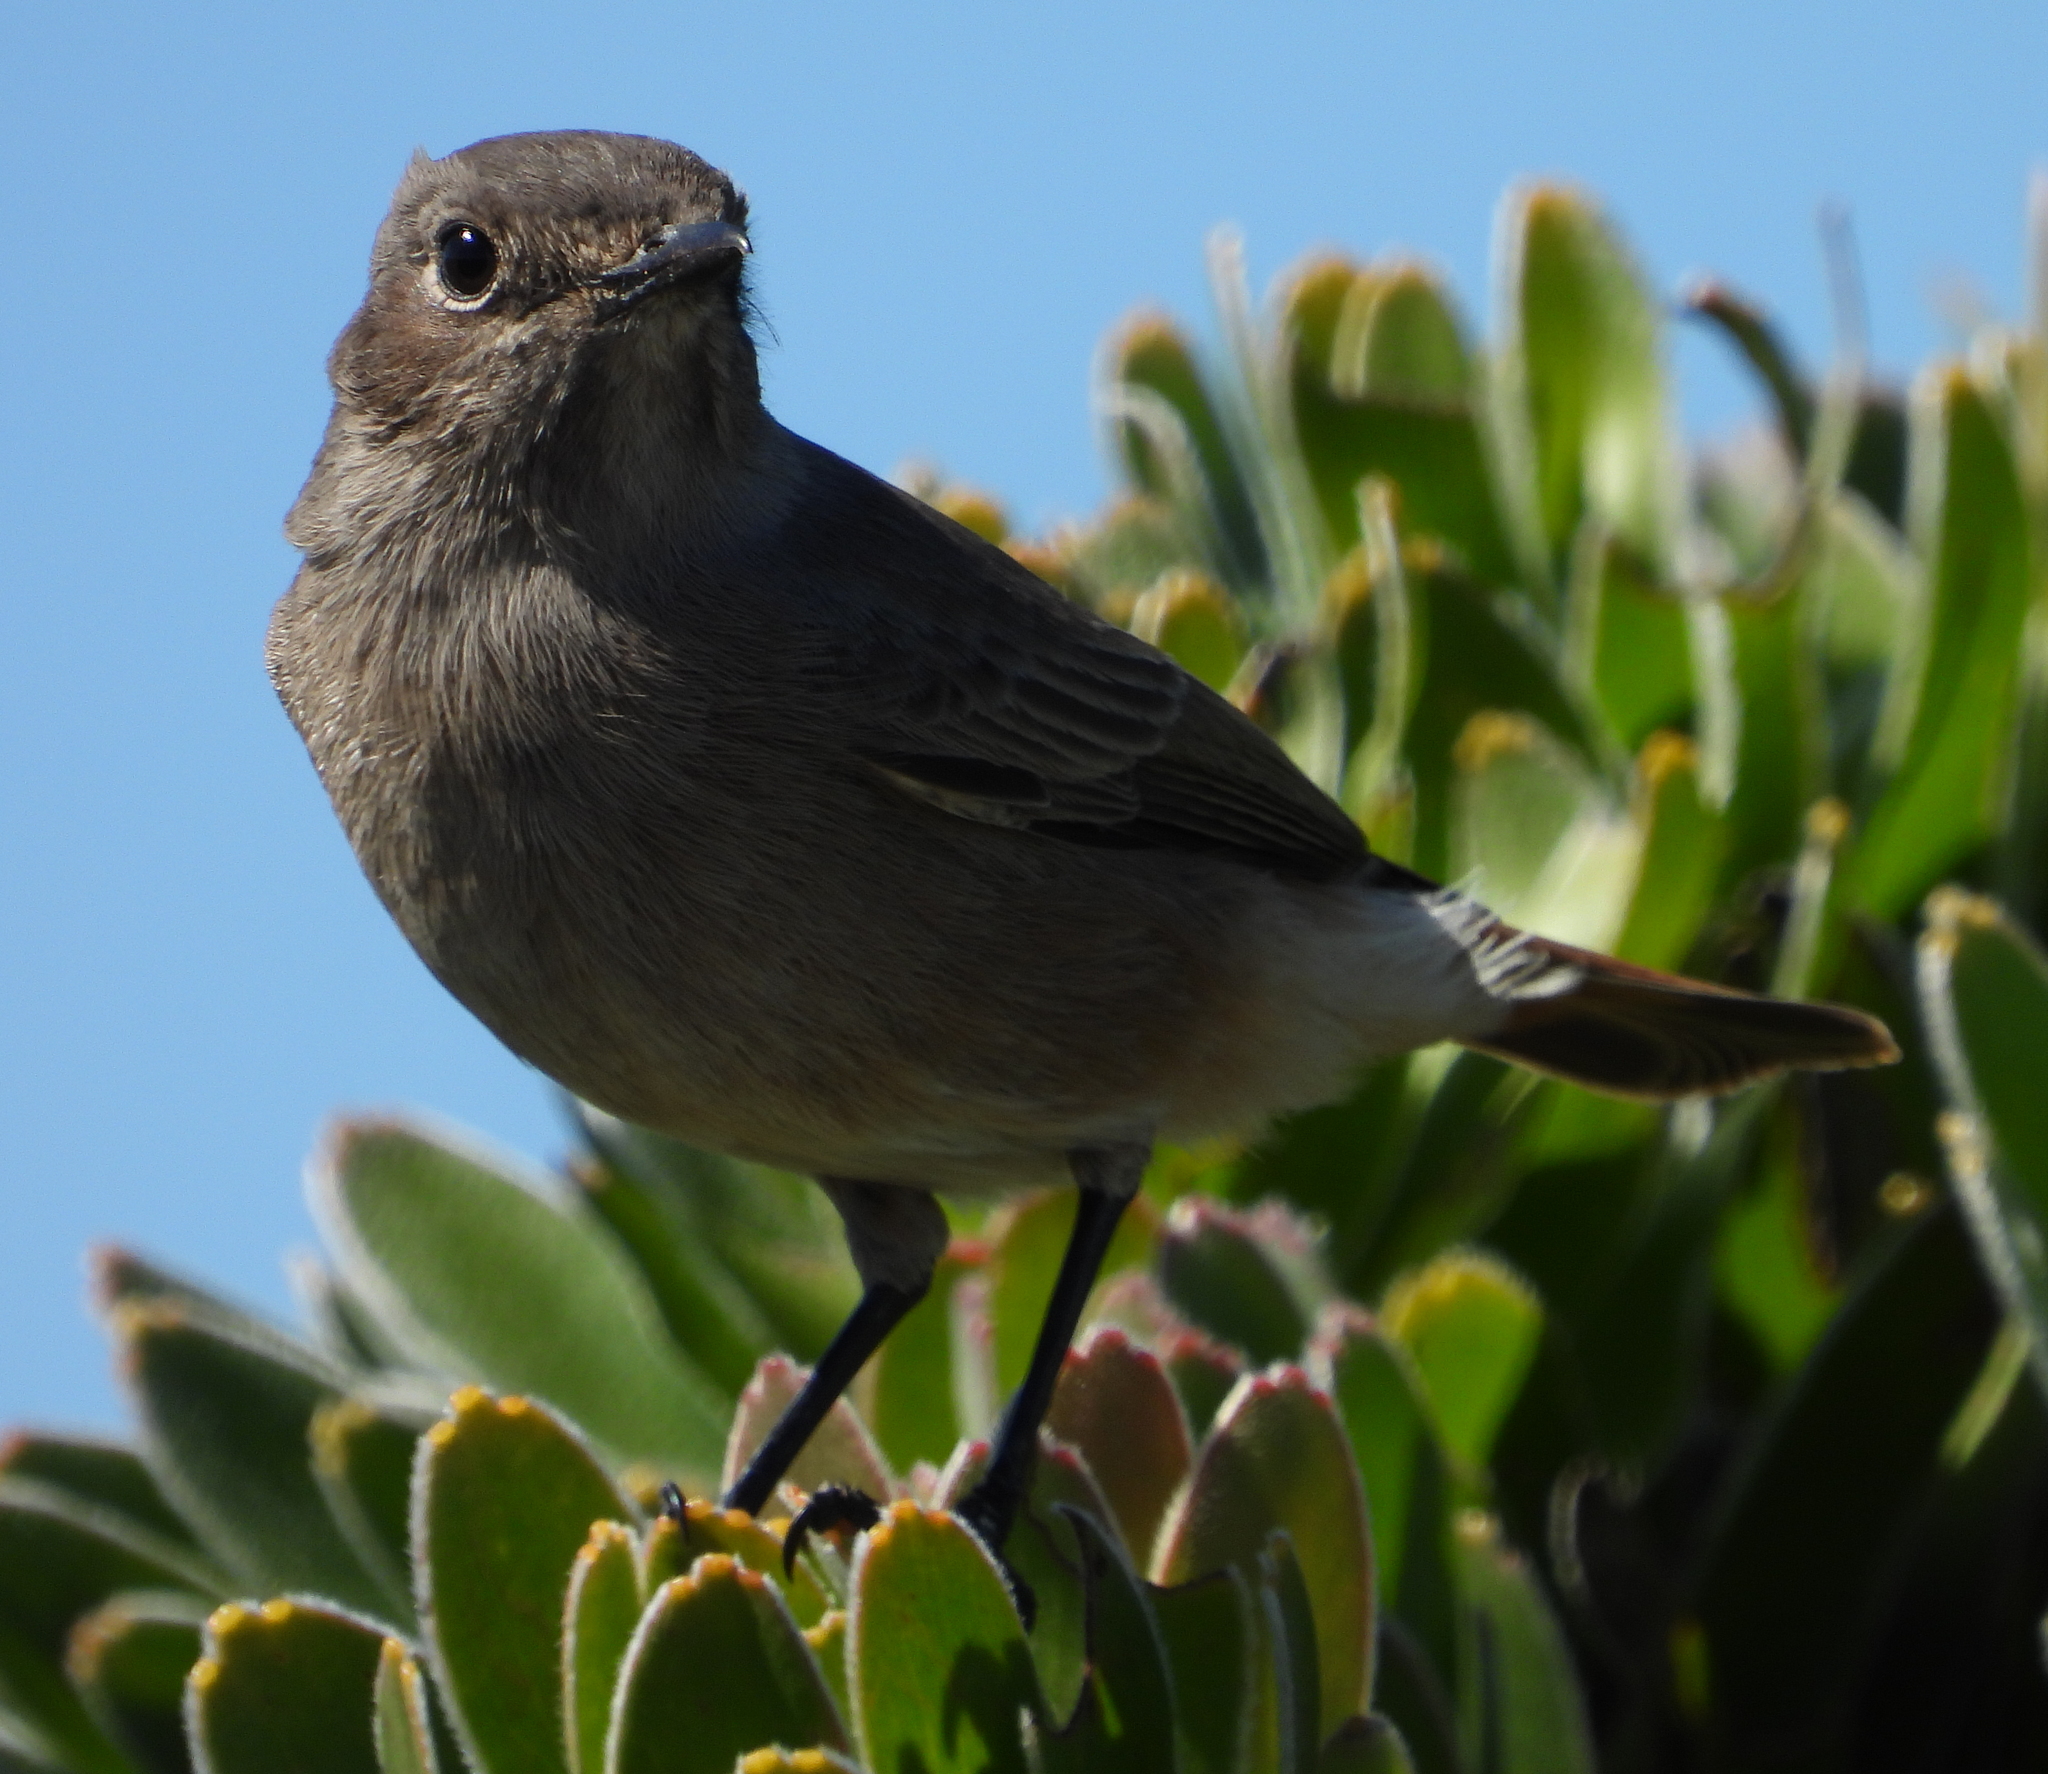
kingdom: Animalia
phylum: Chordata
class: Aves
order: Passeriformes
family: Muscicapidae
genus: Oenanthe
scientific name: Oenanthe familiaris
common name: Familiar chat
